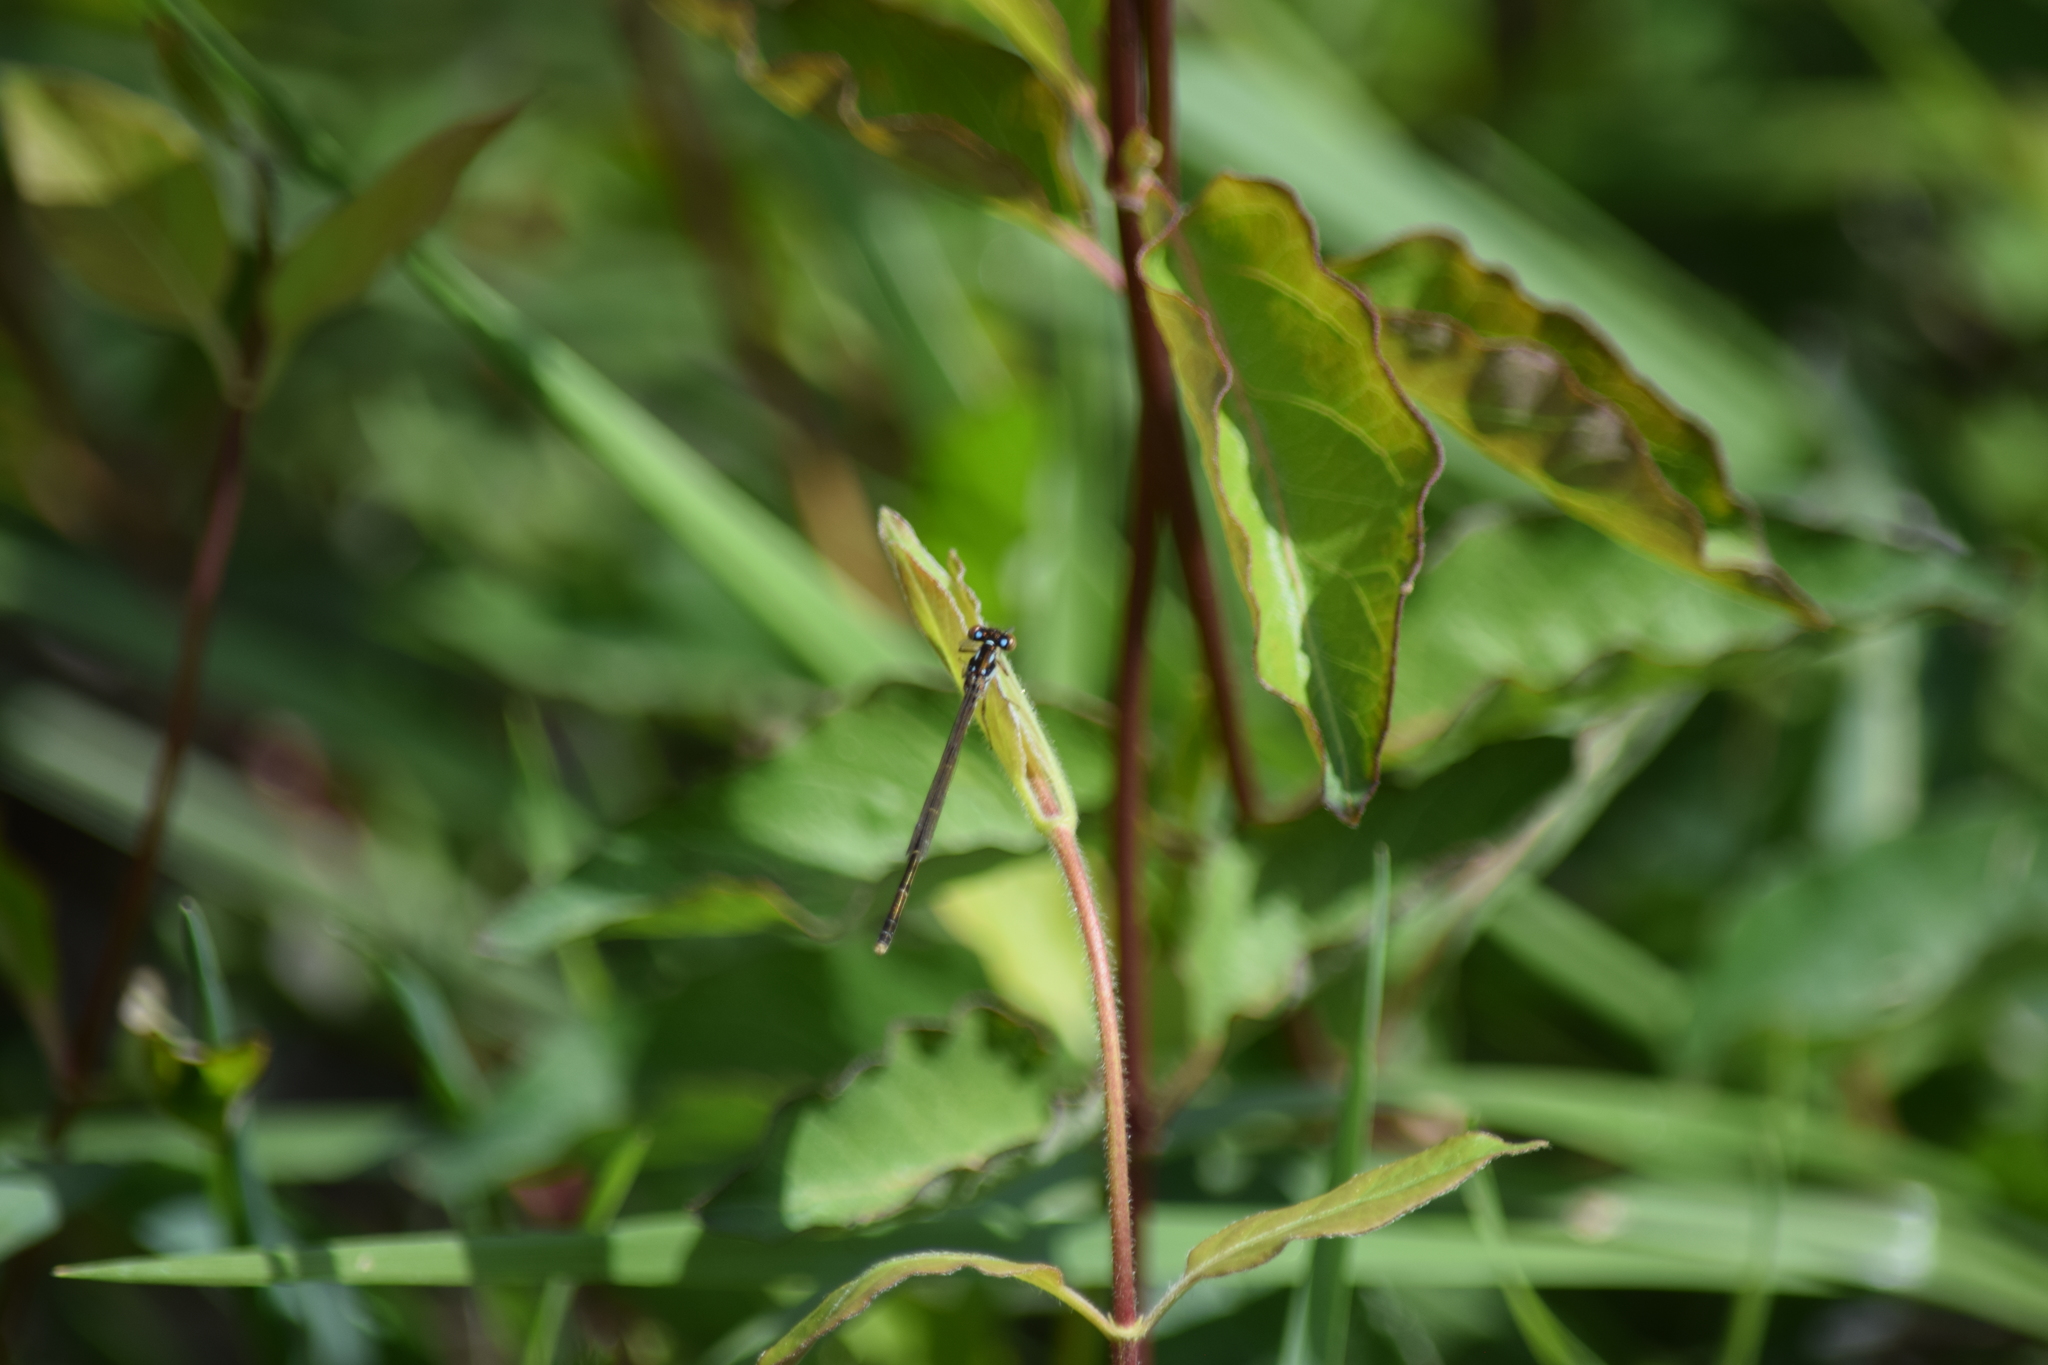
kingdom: Animalia
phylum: Arthropoda
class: Insecta
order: Odonata
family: Coenagrionidae
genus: Ischnura
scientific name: Ischnura posita
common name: Fragile forktail
